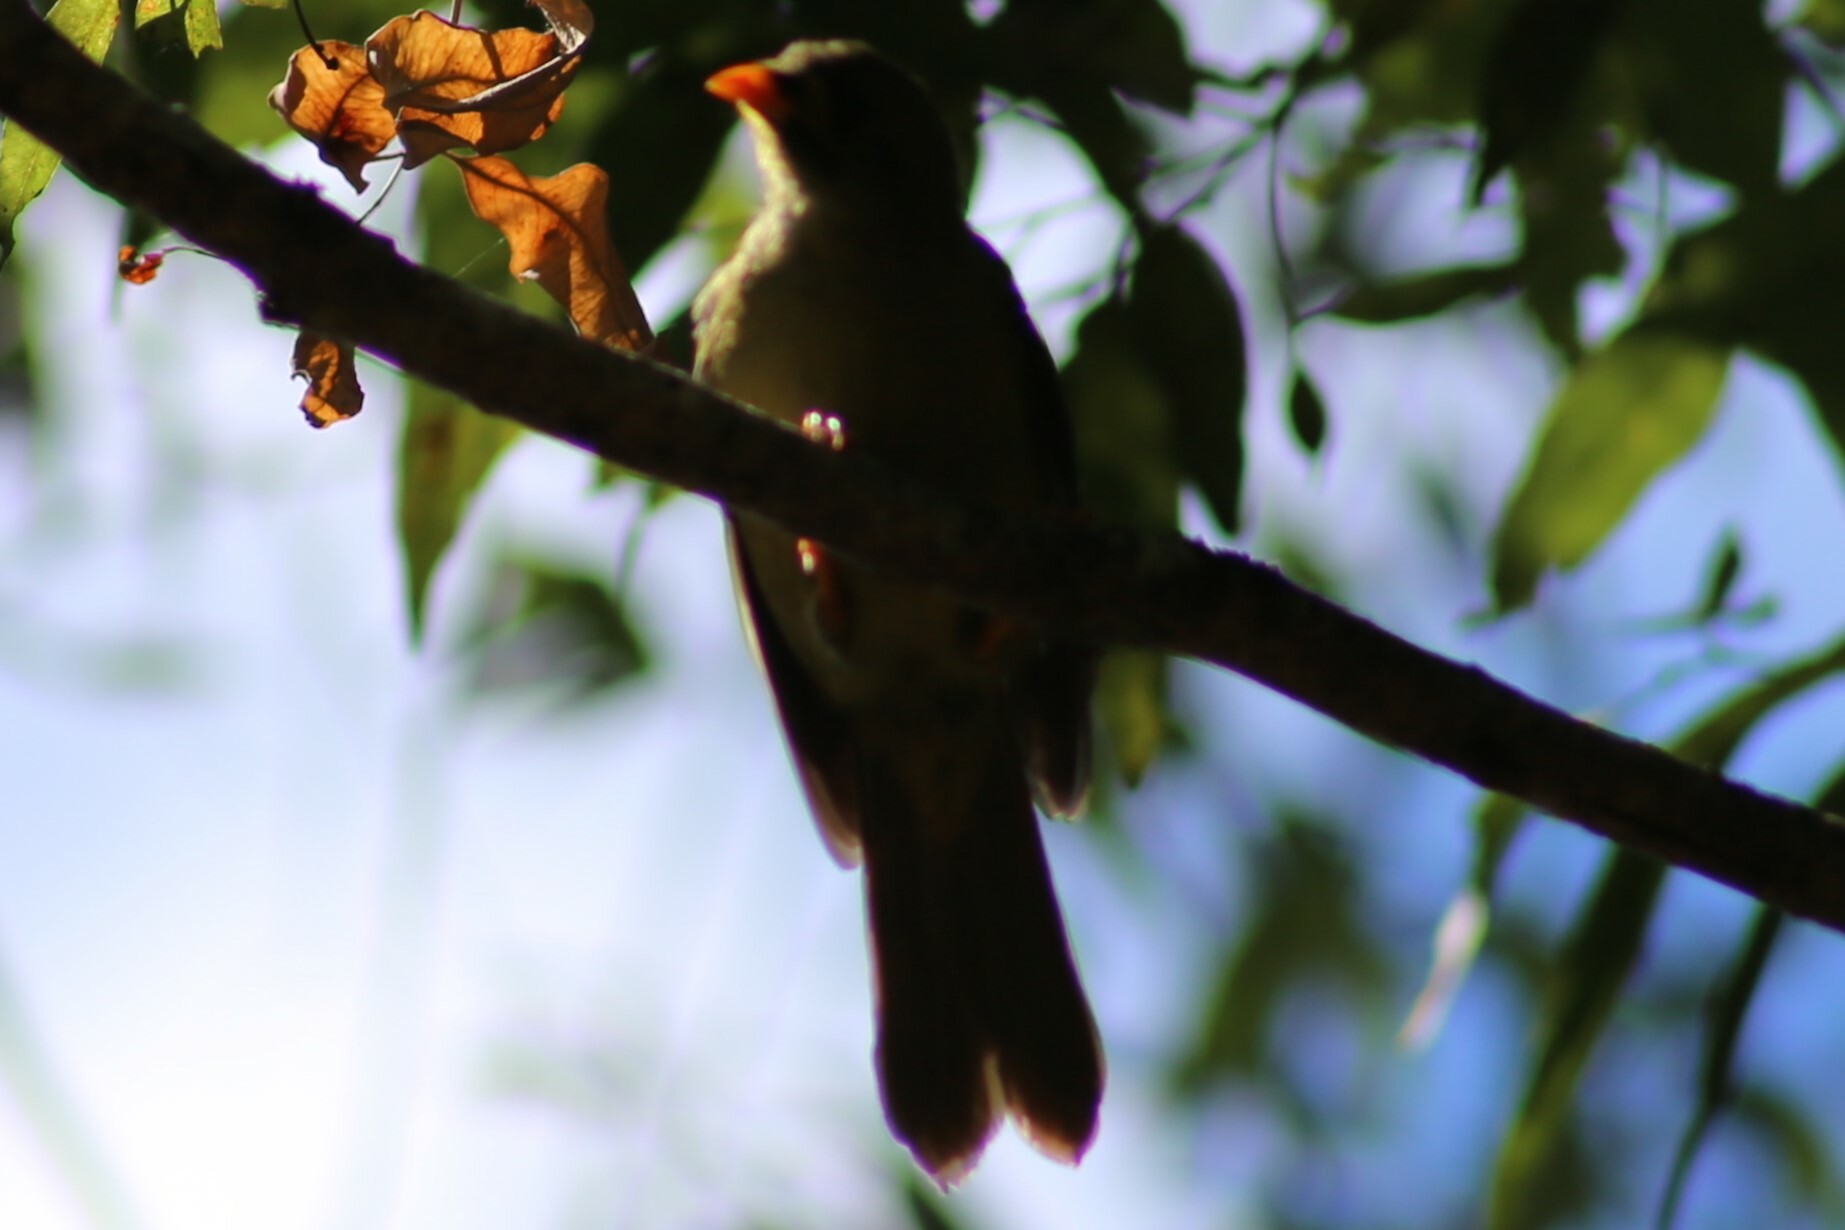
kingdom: Animalia
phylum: Chordata
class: Aves
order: Passeriformes
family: Meliphagidae
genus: Manorina
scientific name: Manorina melanophrys
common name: Bell miner
